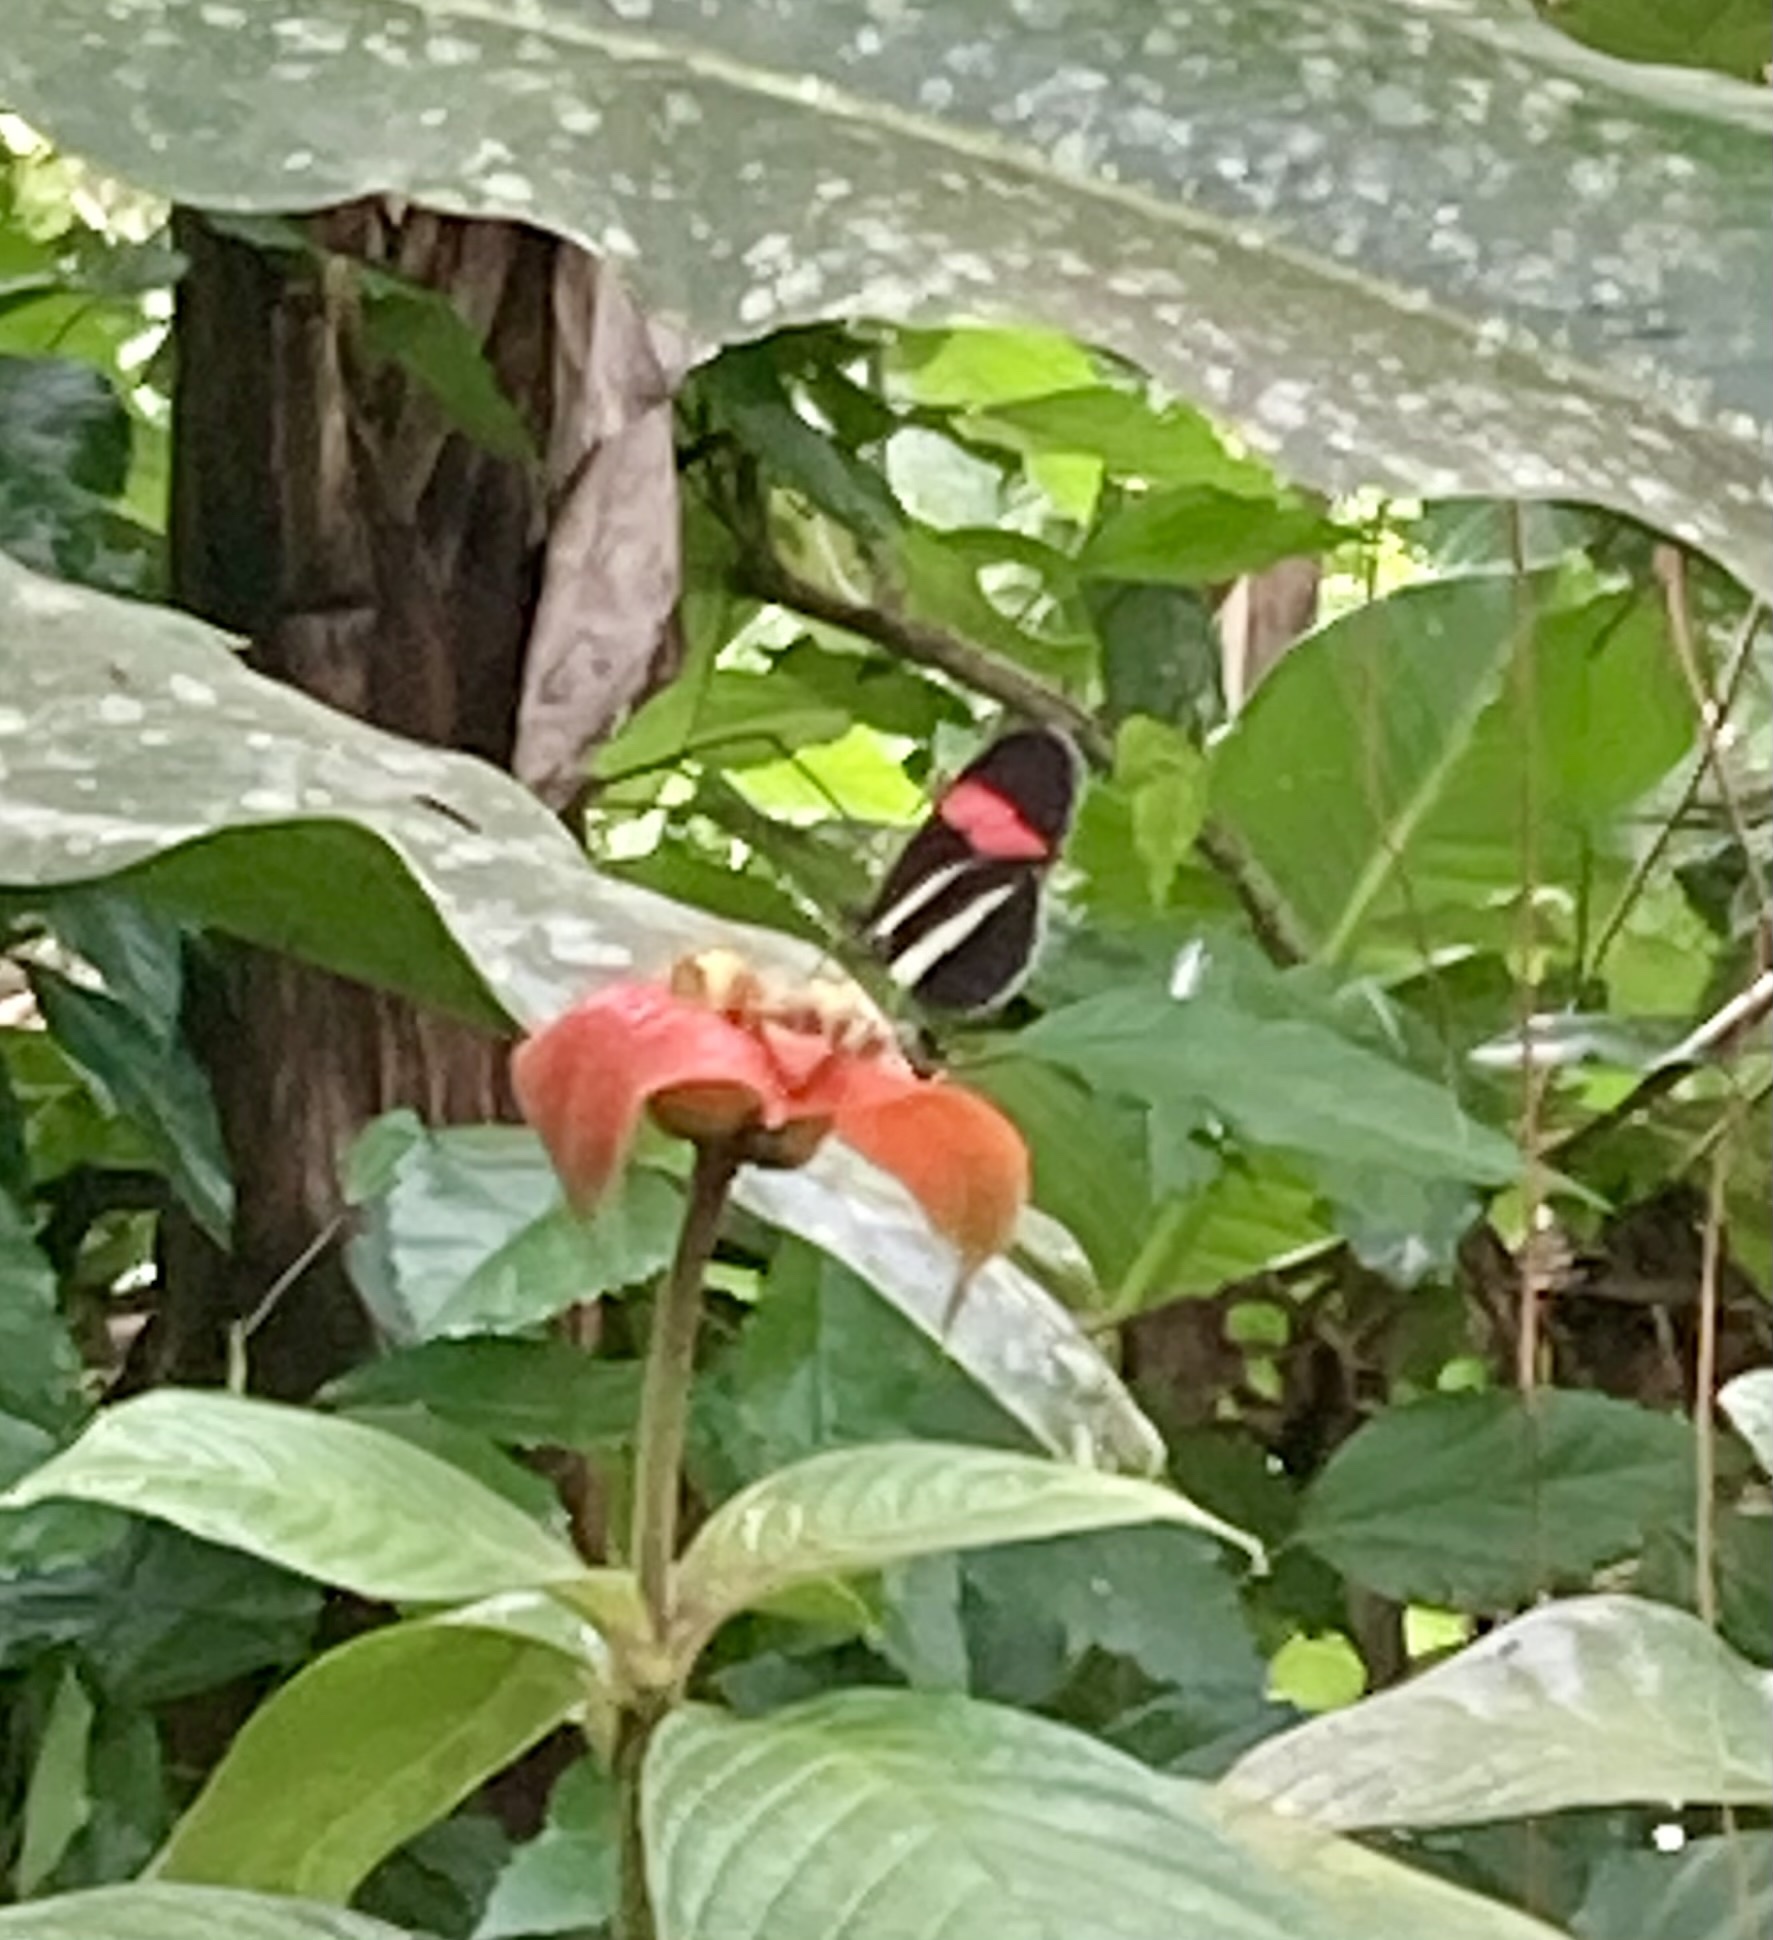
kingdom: Animalia
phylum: Arthropoda
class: Insecta
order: Lepidoptera
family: Nymphalidae
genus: Heliconius
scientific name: Heliconius melpomene
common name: Postman
